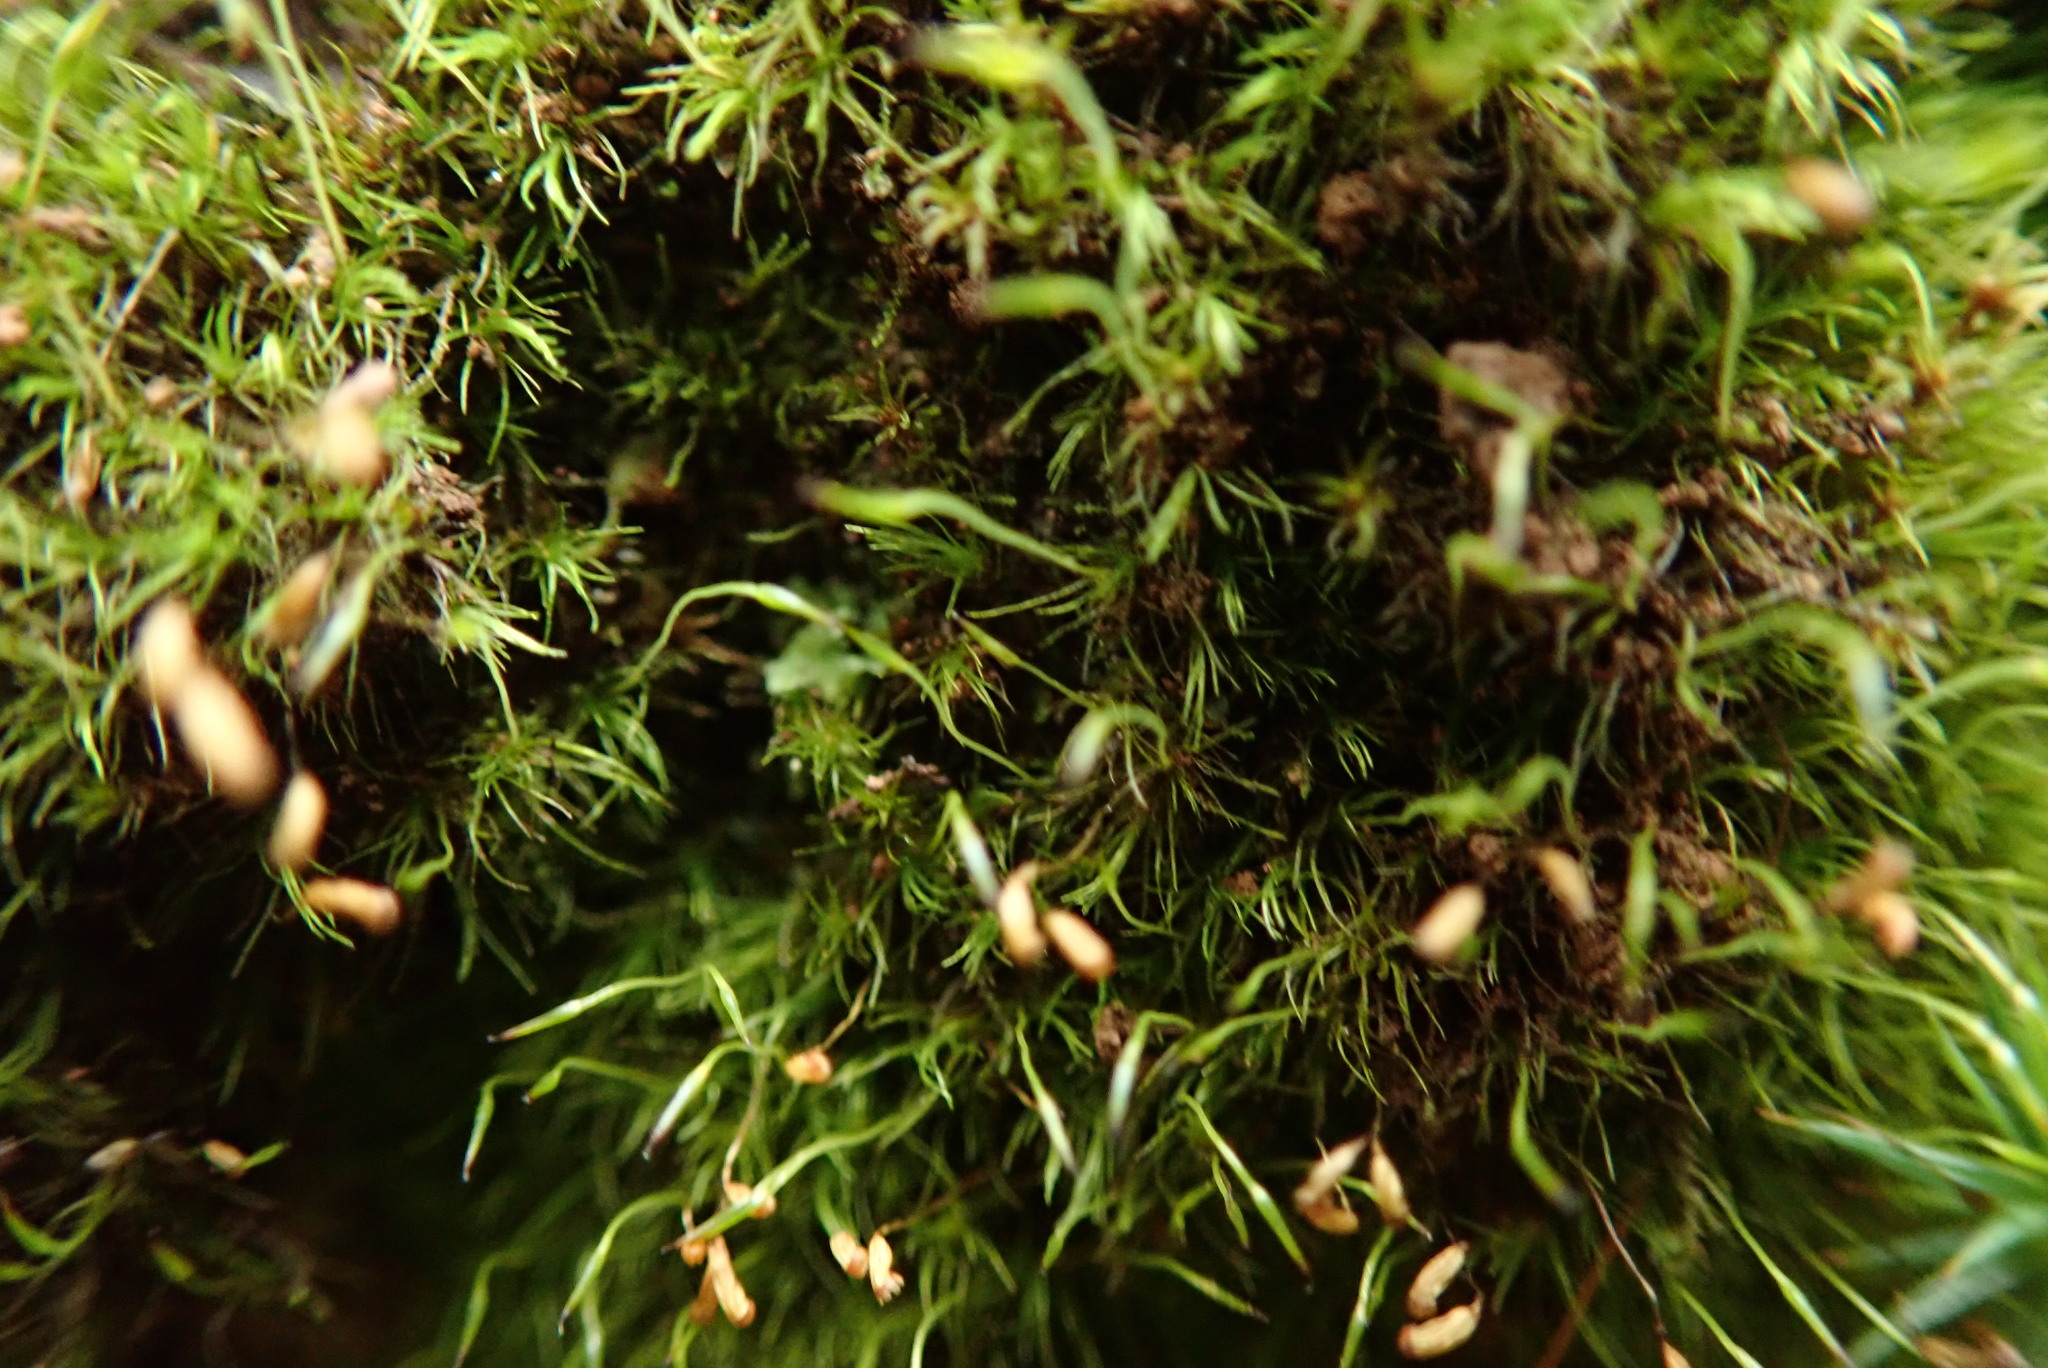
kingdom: Plantae
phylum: Bryophyta
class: Bryopsida
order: Dicranales
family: Dicranellaceae
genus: Dicranella
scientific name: Dicranella heteromalla
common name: Silky forklet moss
